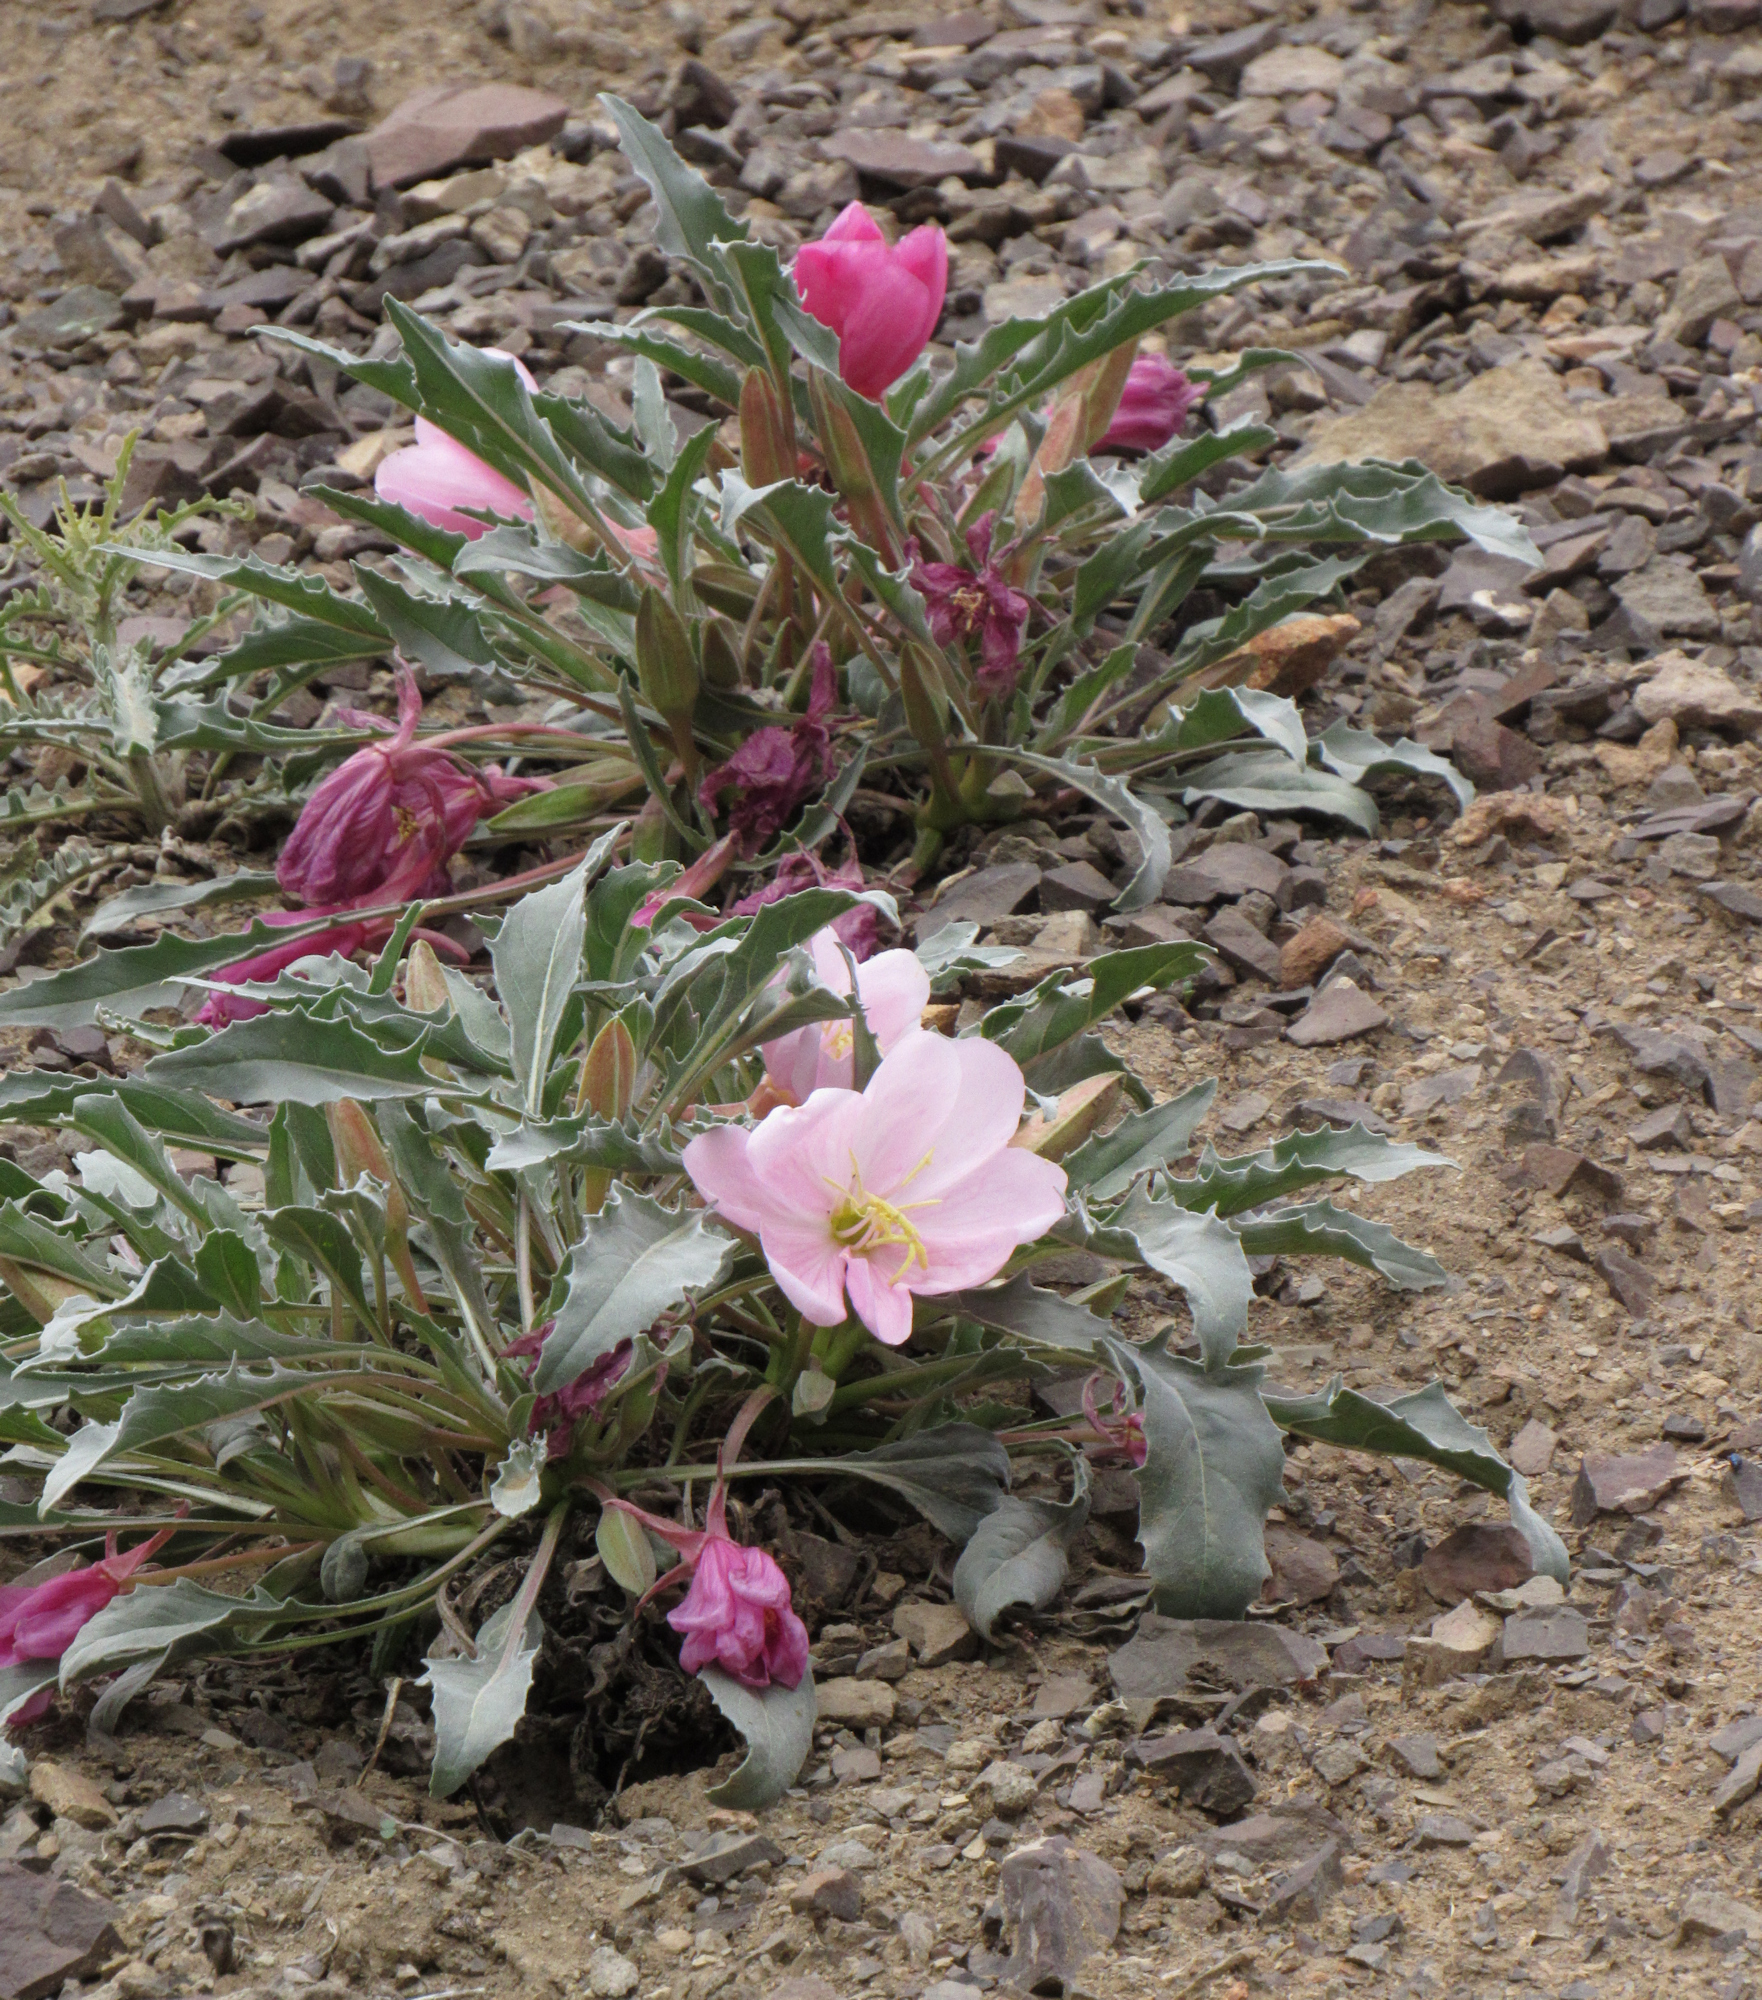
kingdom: Plantae
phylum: Tracheophyta
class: Magnoliopsida
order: Myrtales
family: Onagraceae
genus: Oenothera
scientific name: Oenothera cespitosa
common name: Tufted evening-primrose
